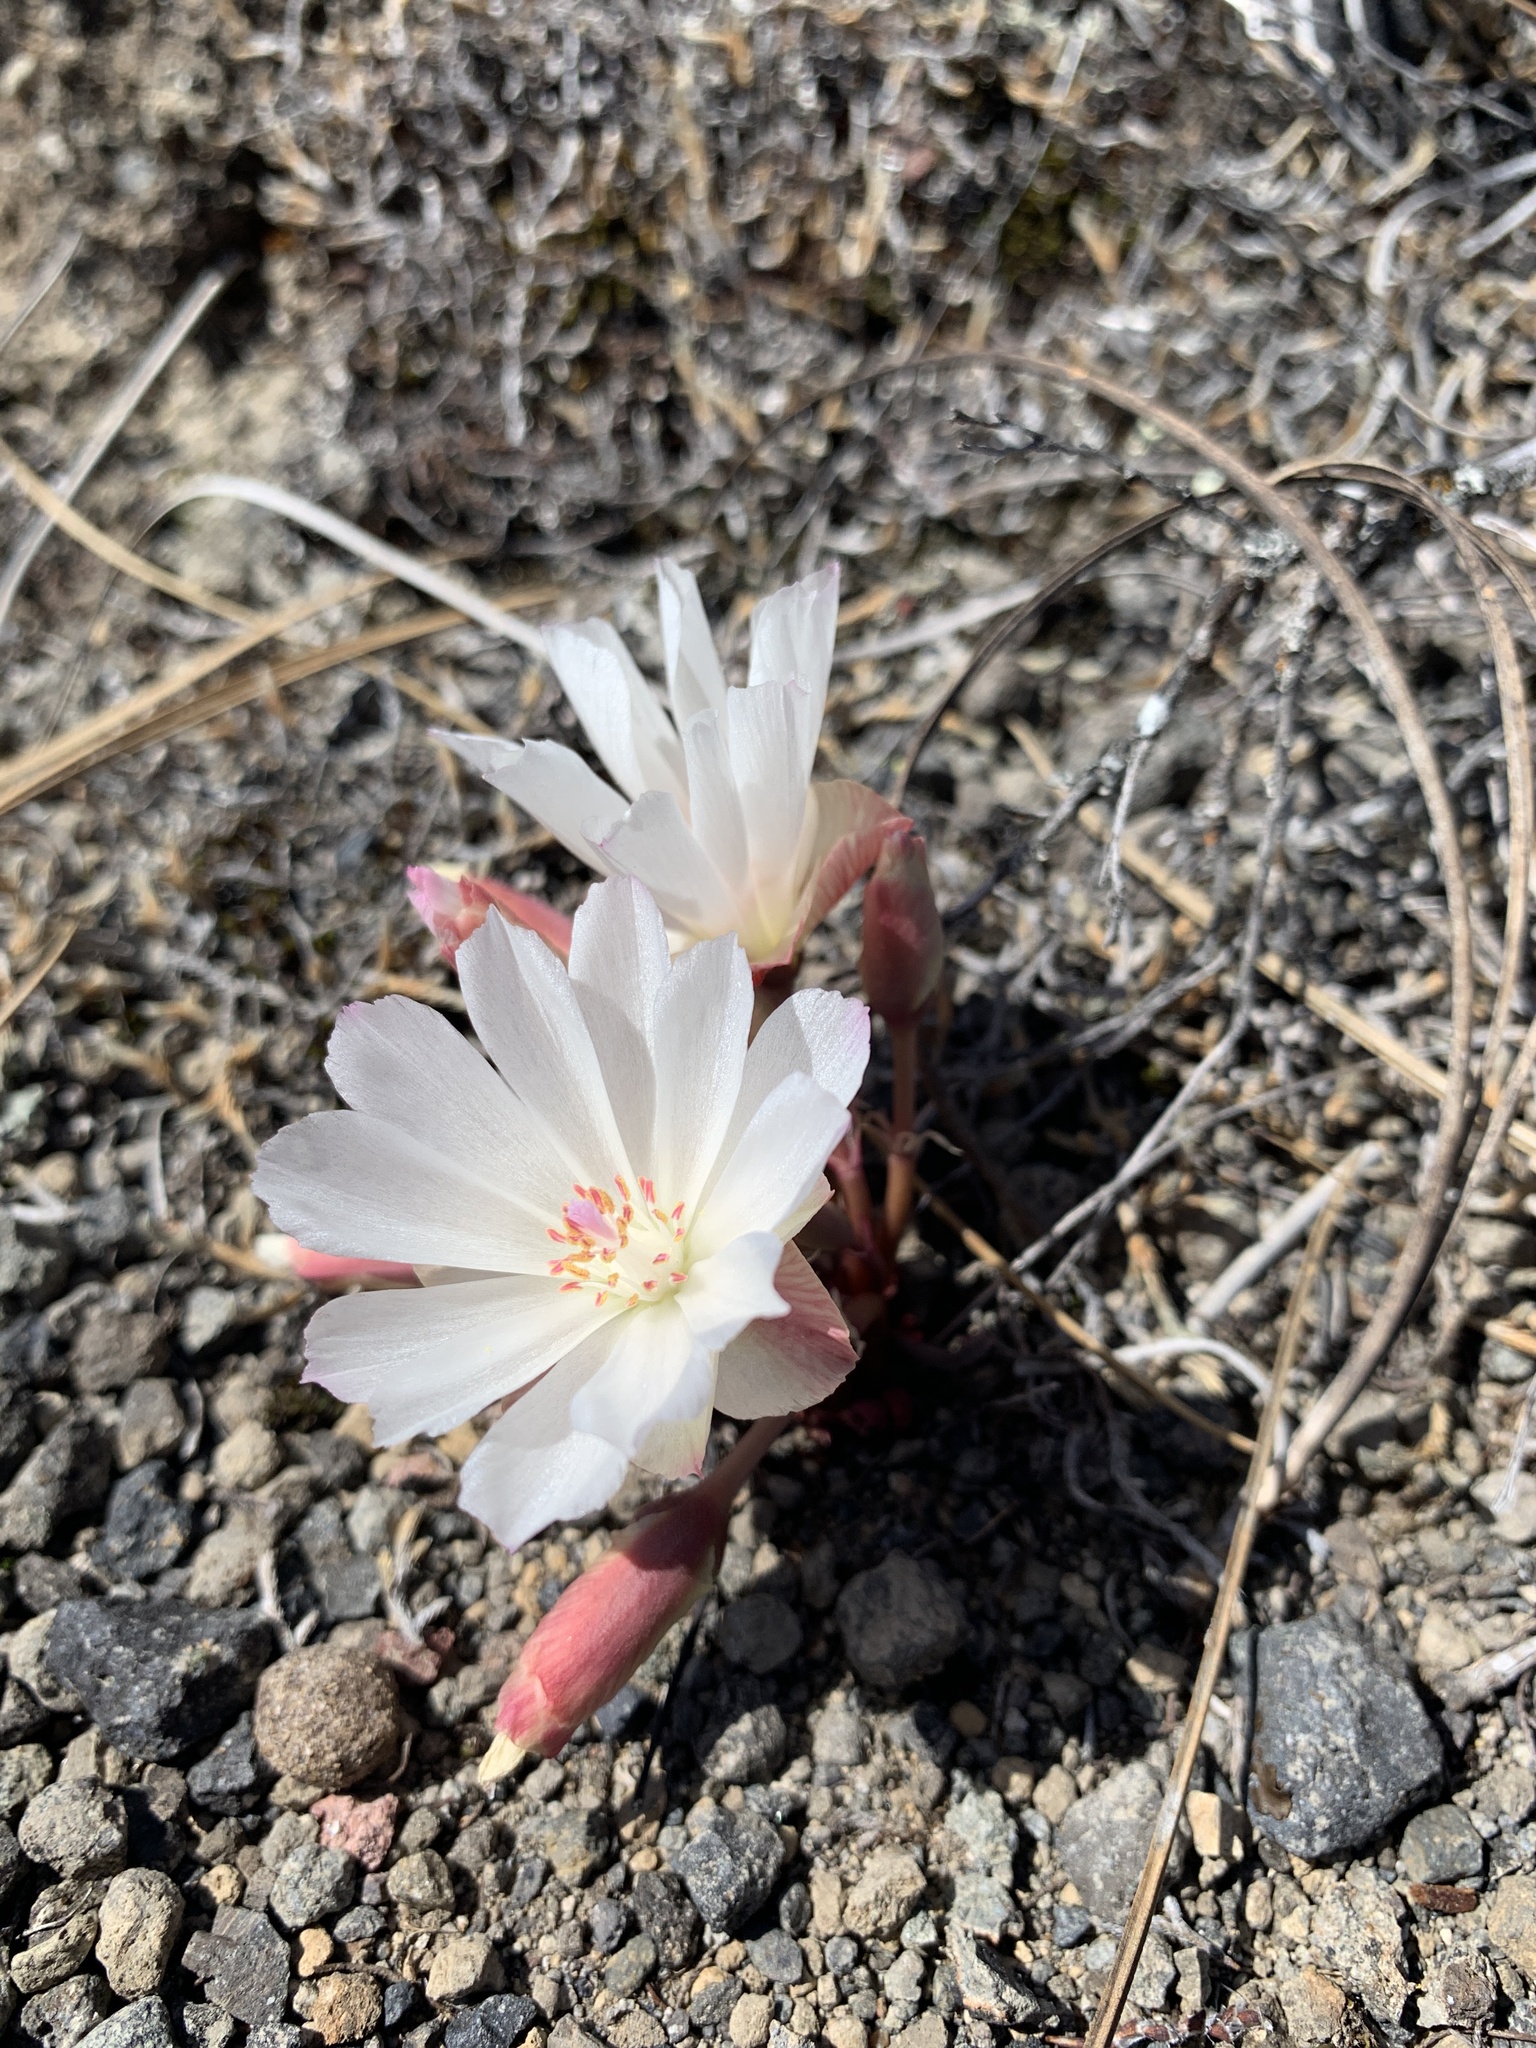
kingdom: Plantae
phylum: Tracheophyta
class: Magnoliopsida
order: Caryophyllales
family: Montiaceae
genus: Lewisia
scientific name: Lewisia rediviva
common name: Bitter-root
